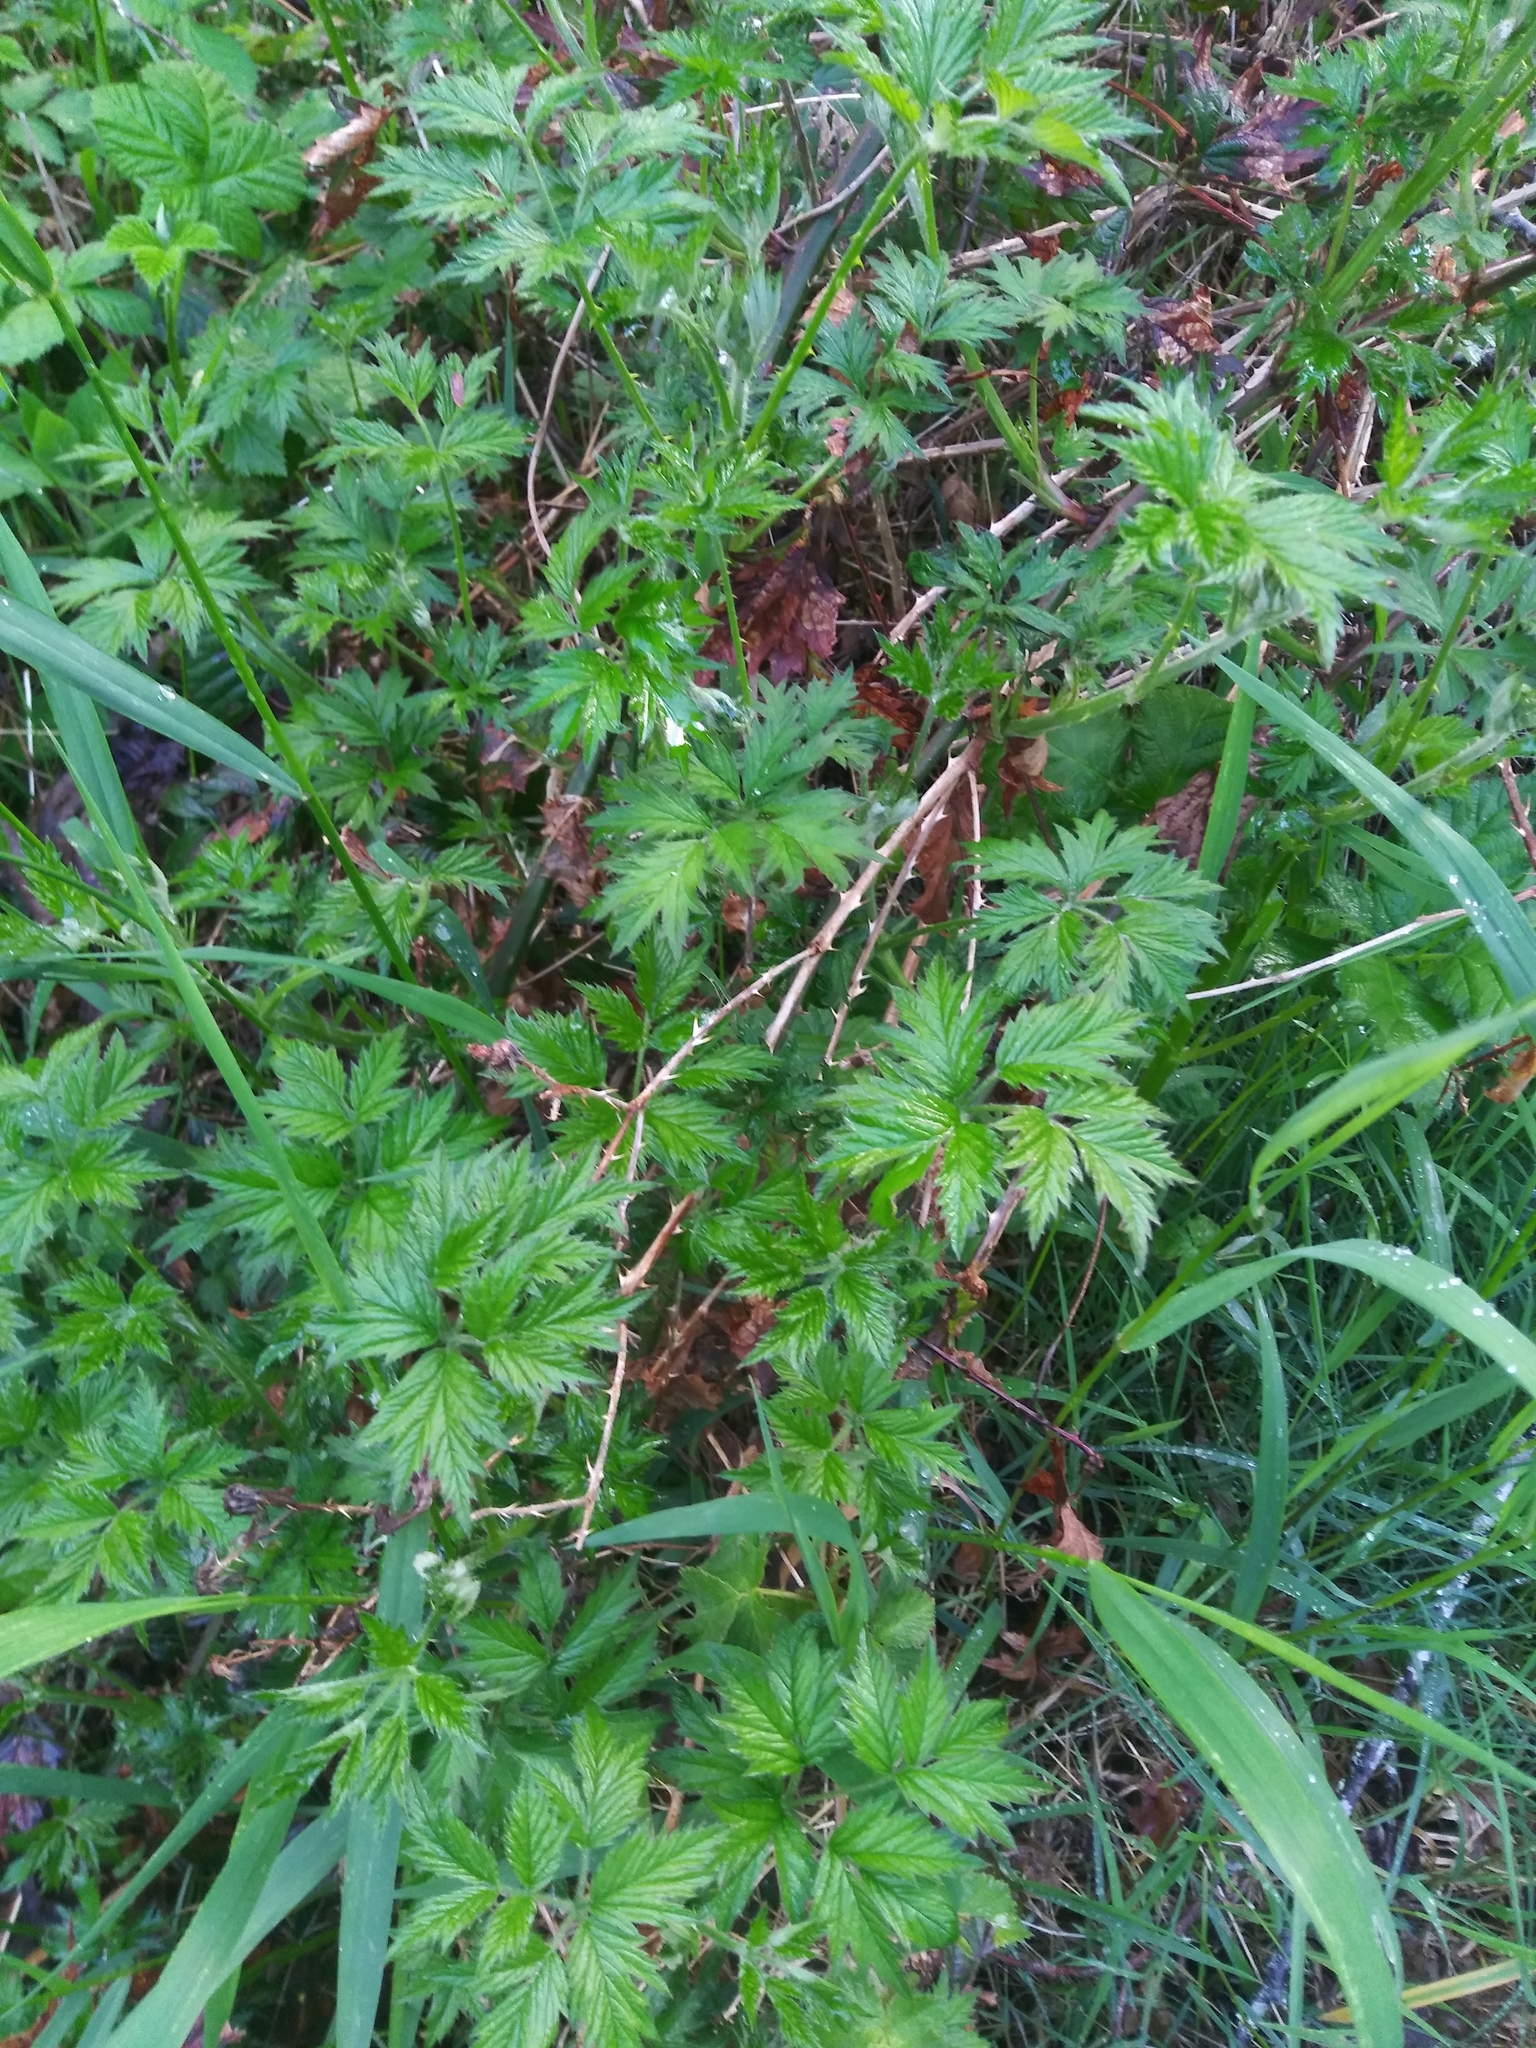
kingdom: Plantae
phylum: Tracheophyta
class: Magnoliopsida
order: Rosales
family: Rosaceae
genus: Rubus
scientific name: Rubus laciniatus
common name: Evergreen blackberry
